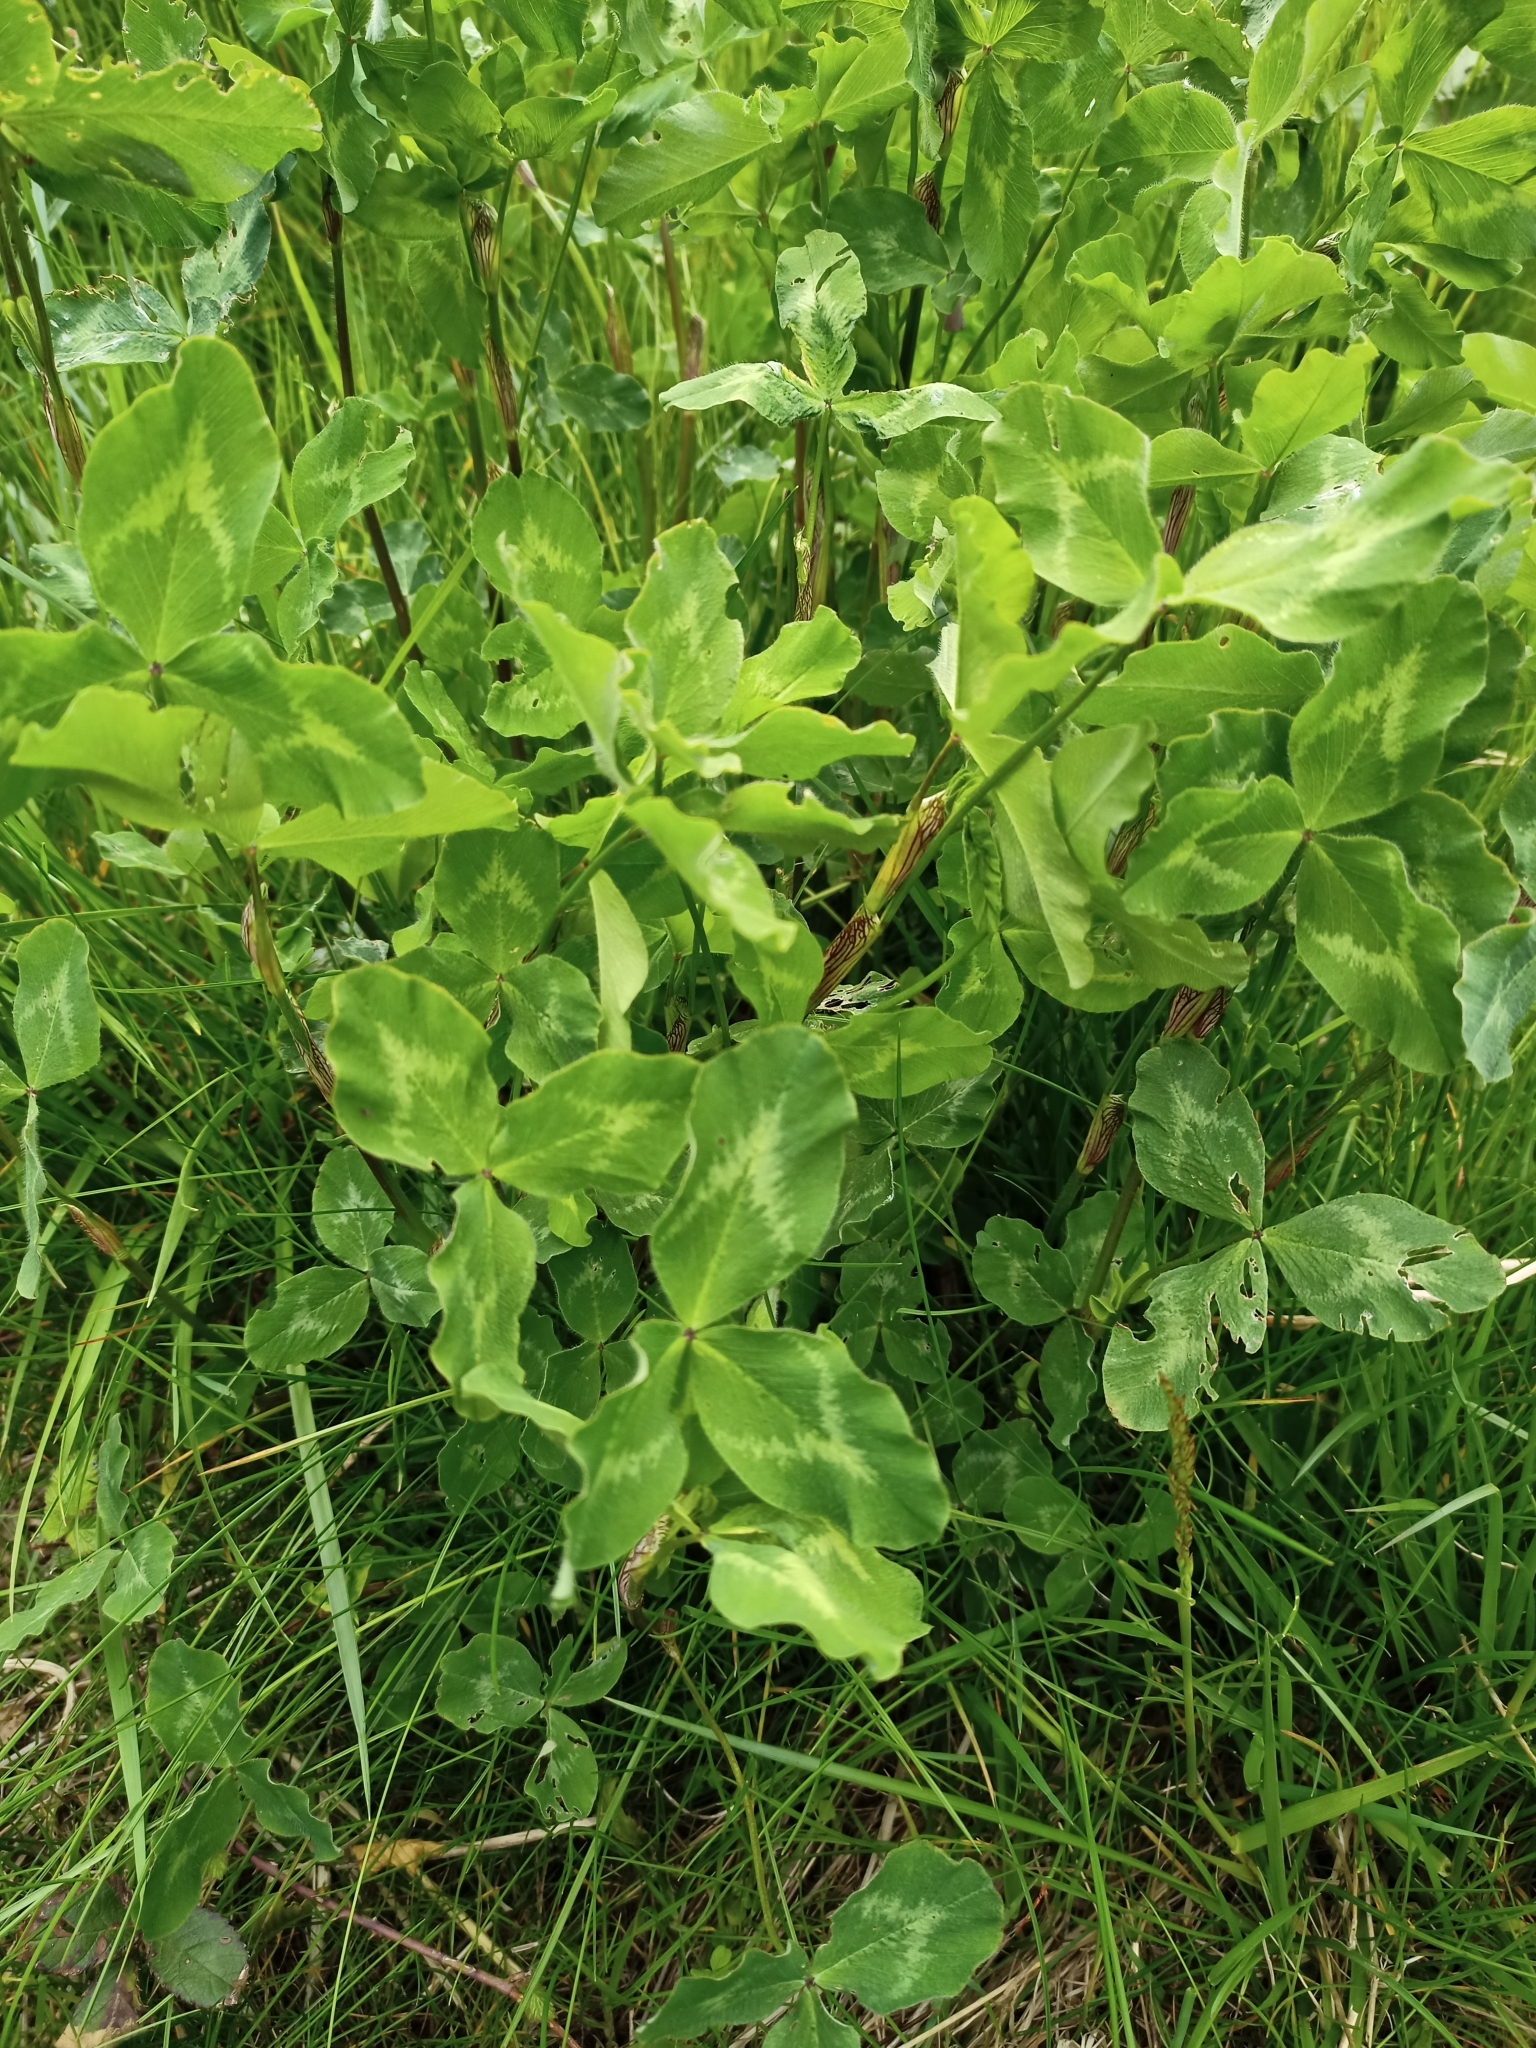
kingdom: Plantae
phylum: Tracheophyta
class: Magnoliopsida
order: Fabales
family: Fabaceae
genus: Trifolium
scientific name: Trifolium pratense
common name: Red clover
